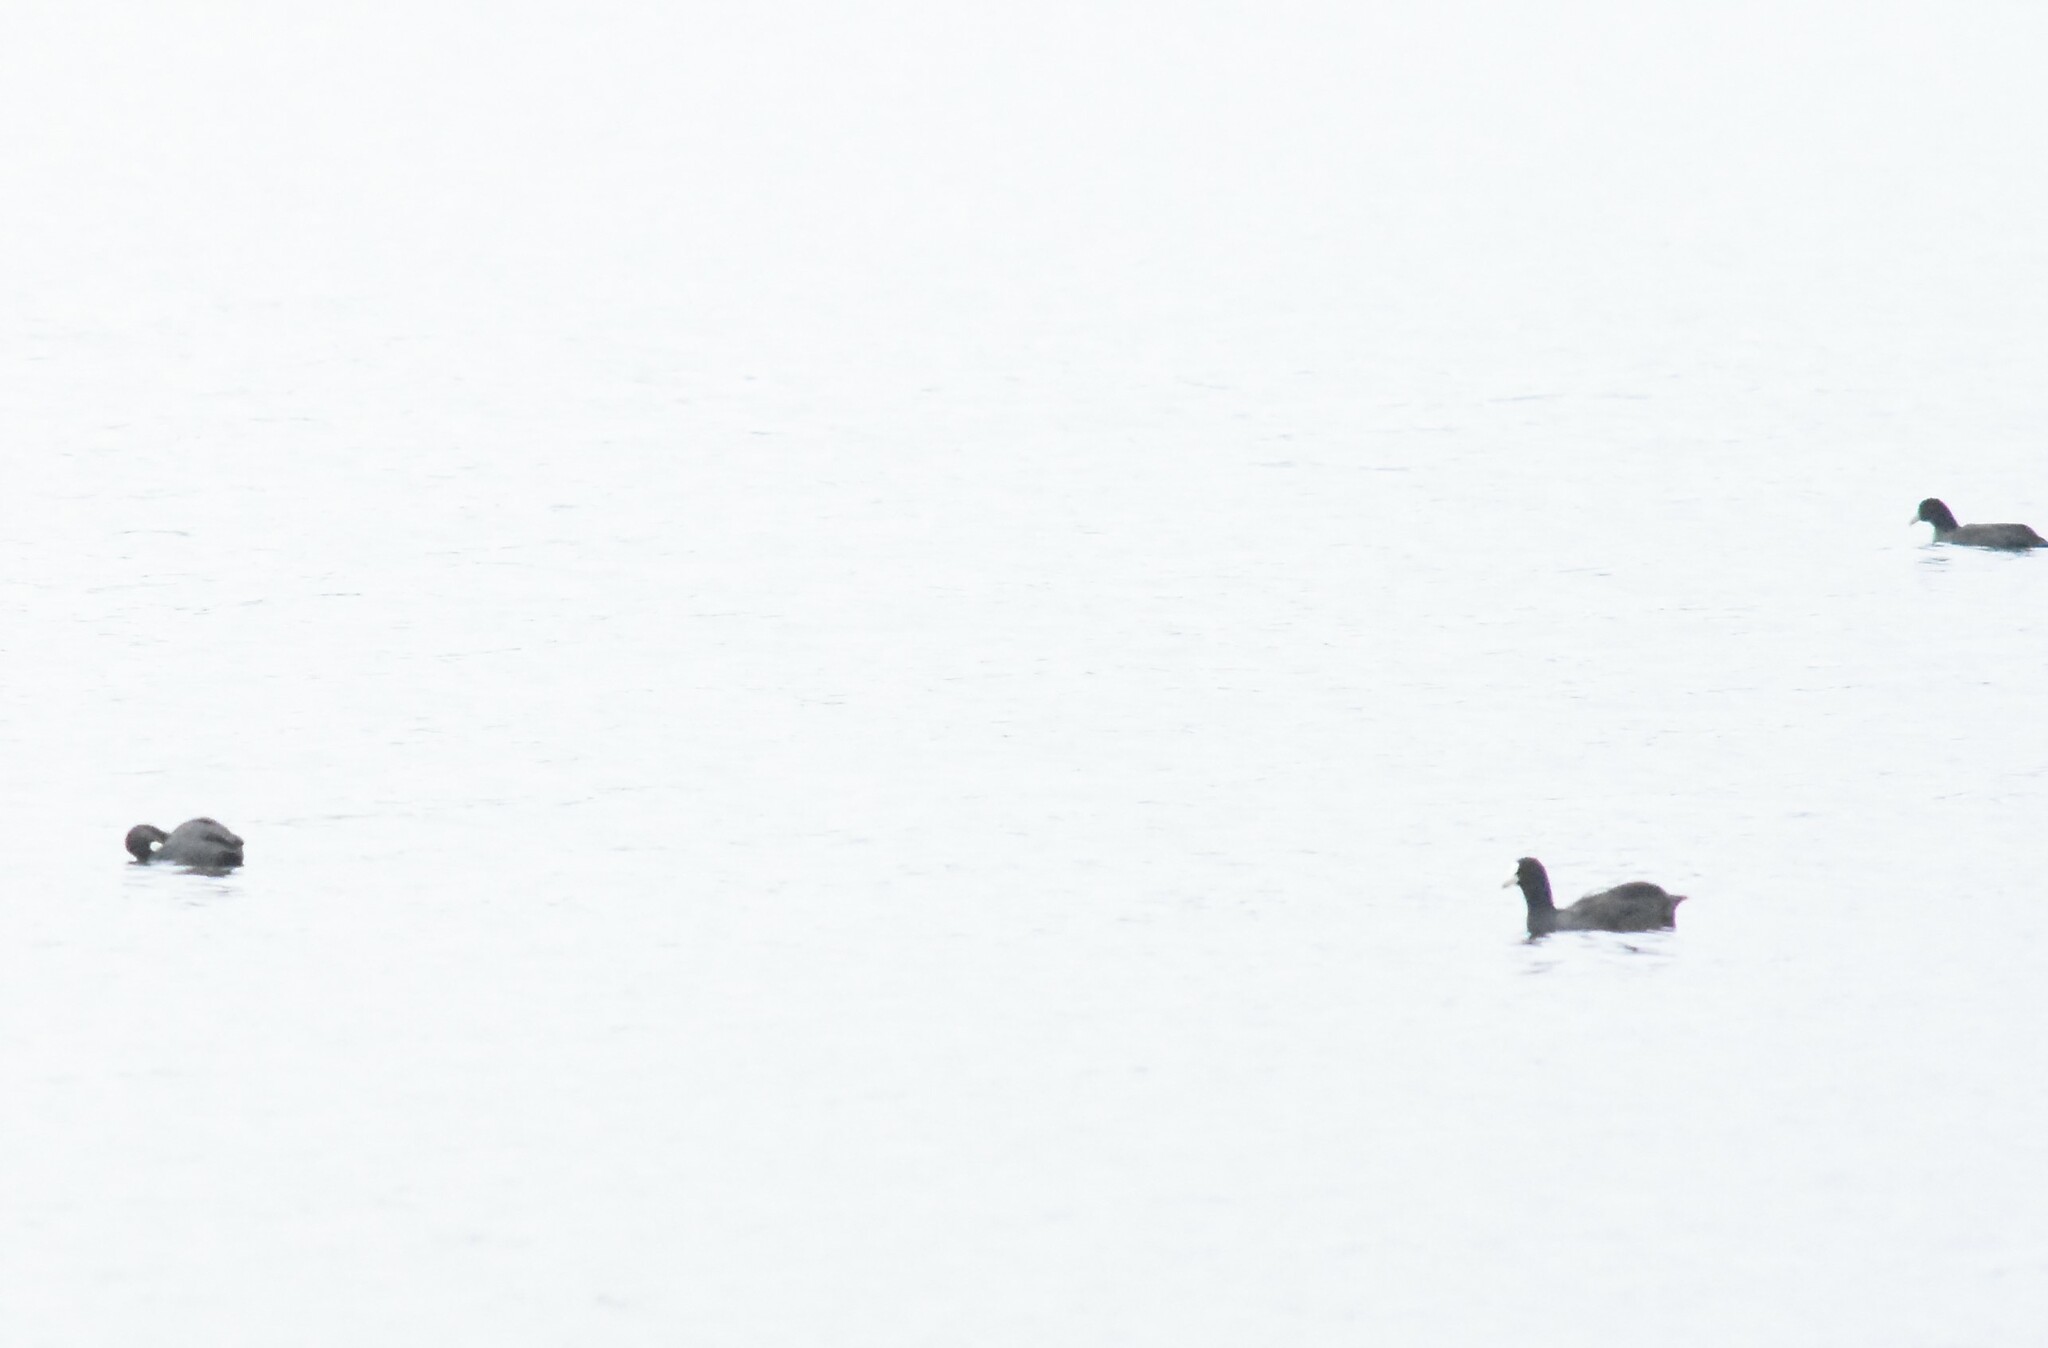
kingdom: Animalia
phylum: Chordata
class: Aves
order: Gruiformes
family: Rallidae
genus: Fulica
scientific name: Fulica atra
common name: Eurasian coot
